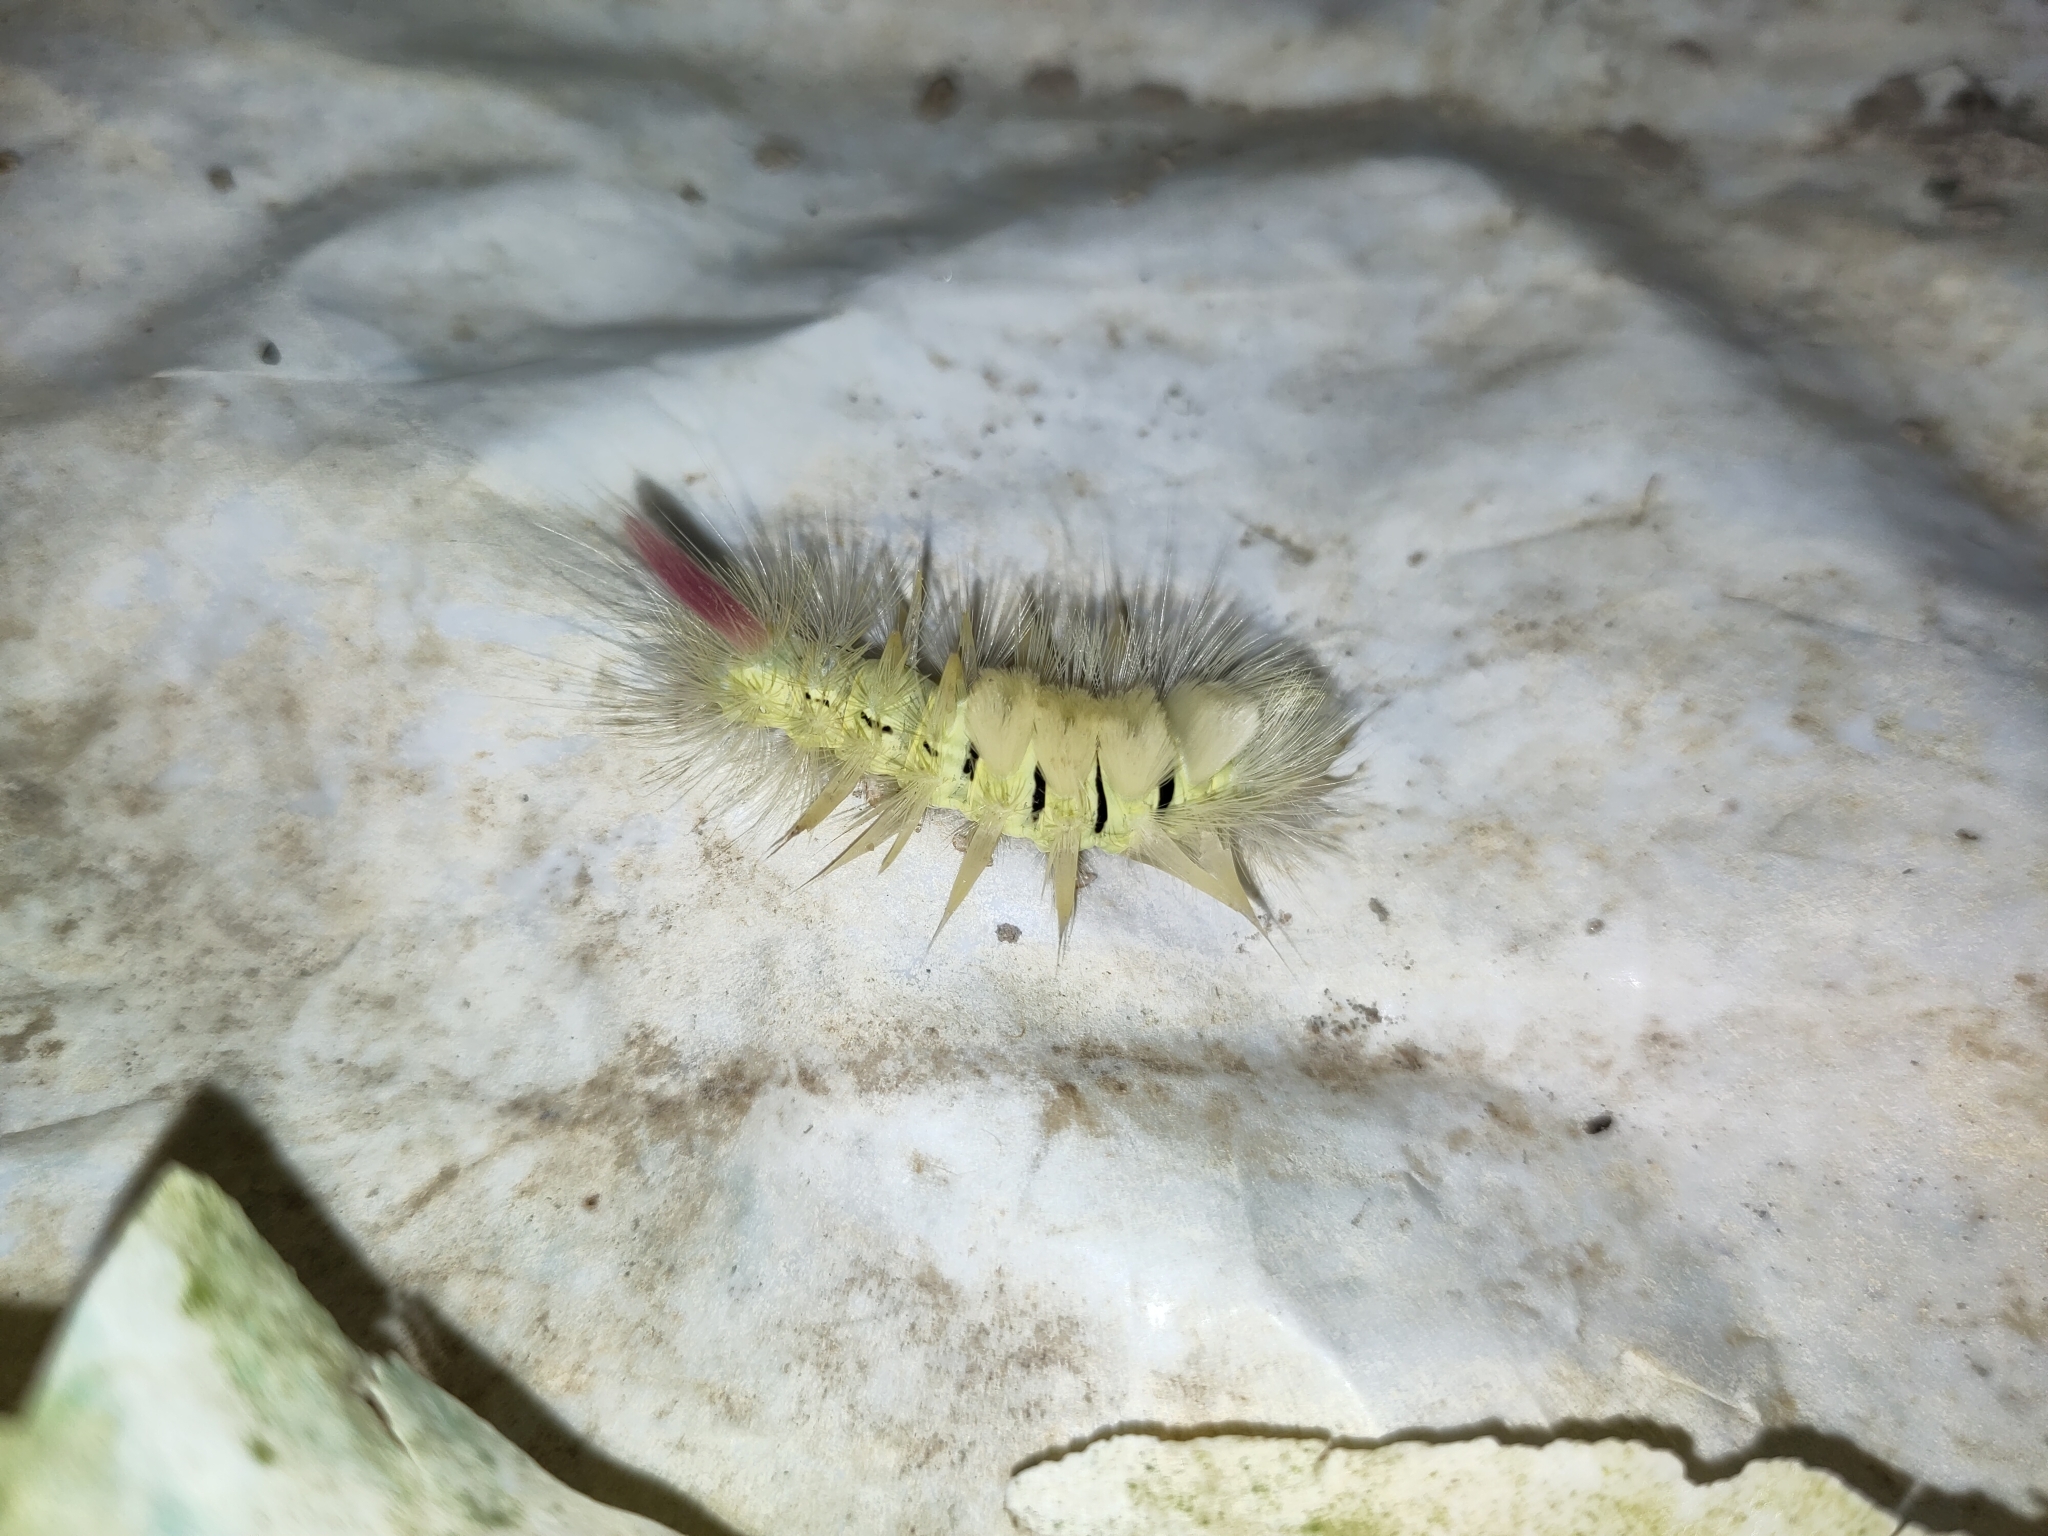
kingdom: Animalia
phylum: Arthropoda
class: Insecta
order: Lepidoptera
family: Erebidae
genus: Calliteara
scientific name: Calliteara pudibunda
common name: Pale tussock
